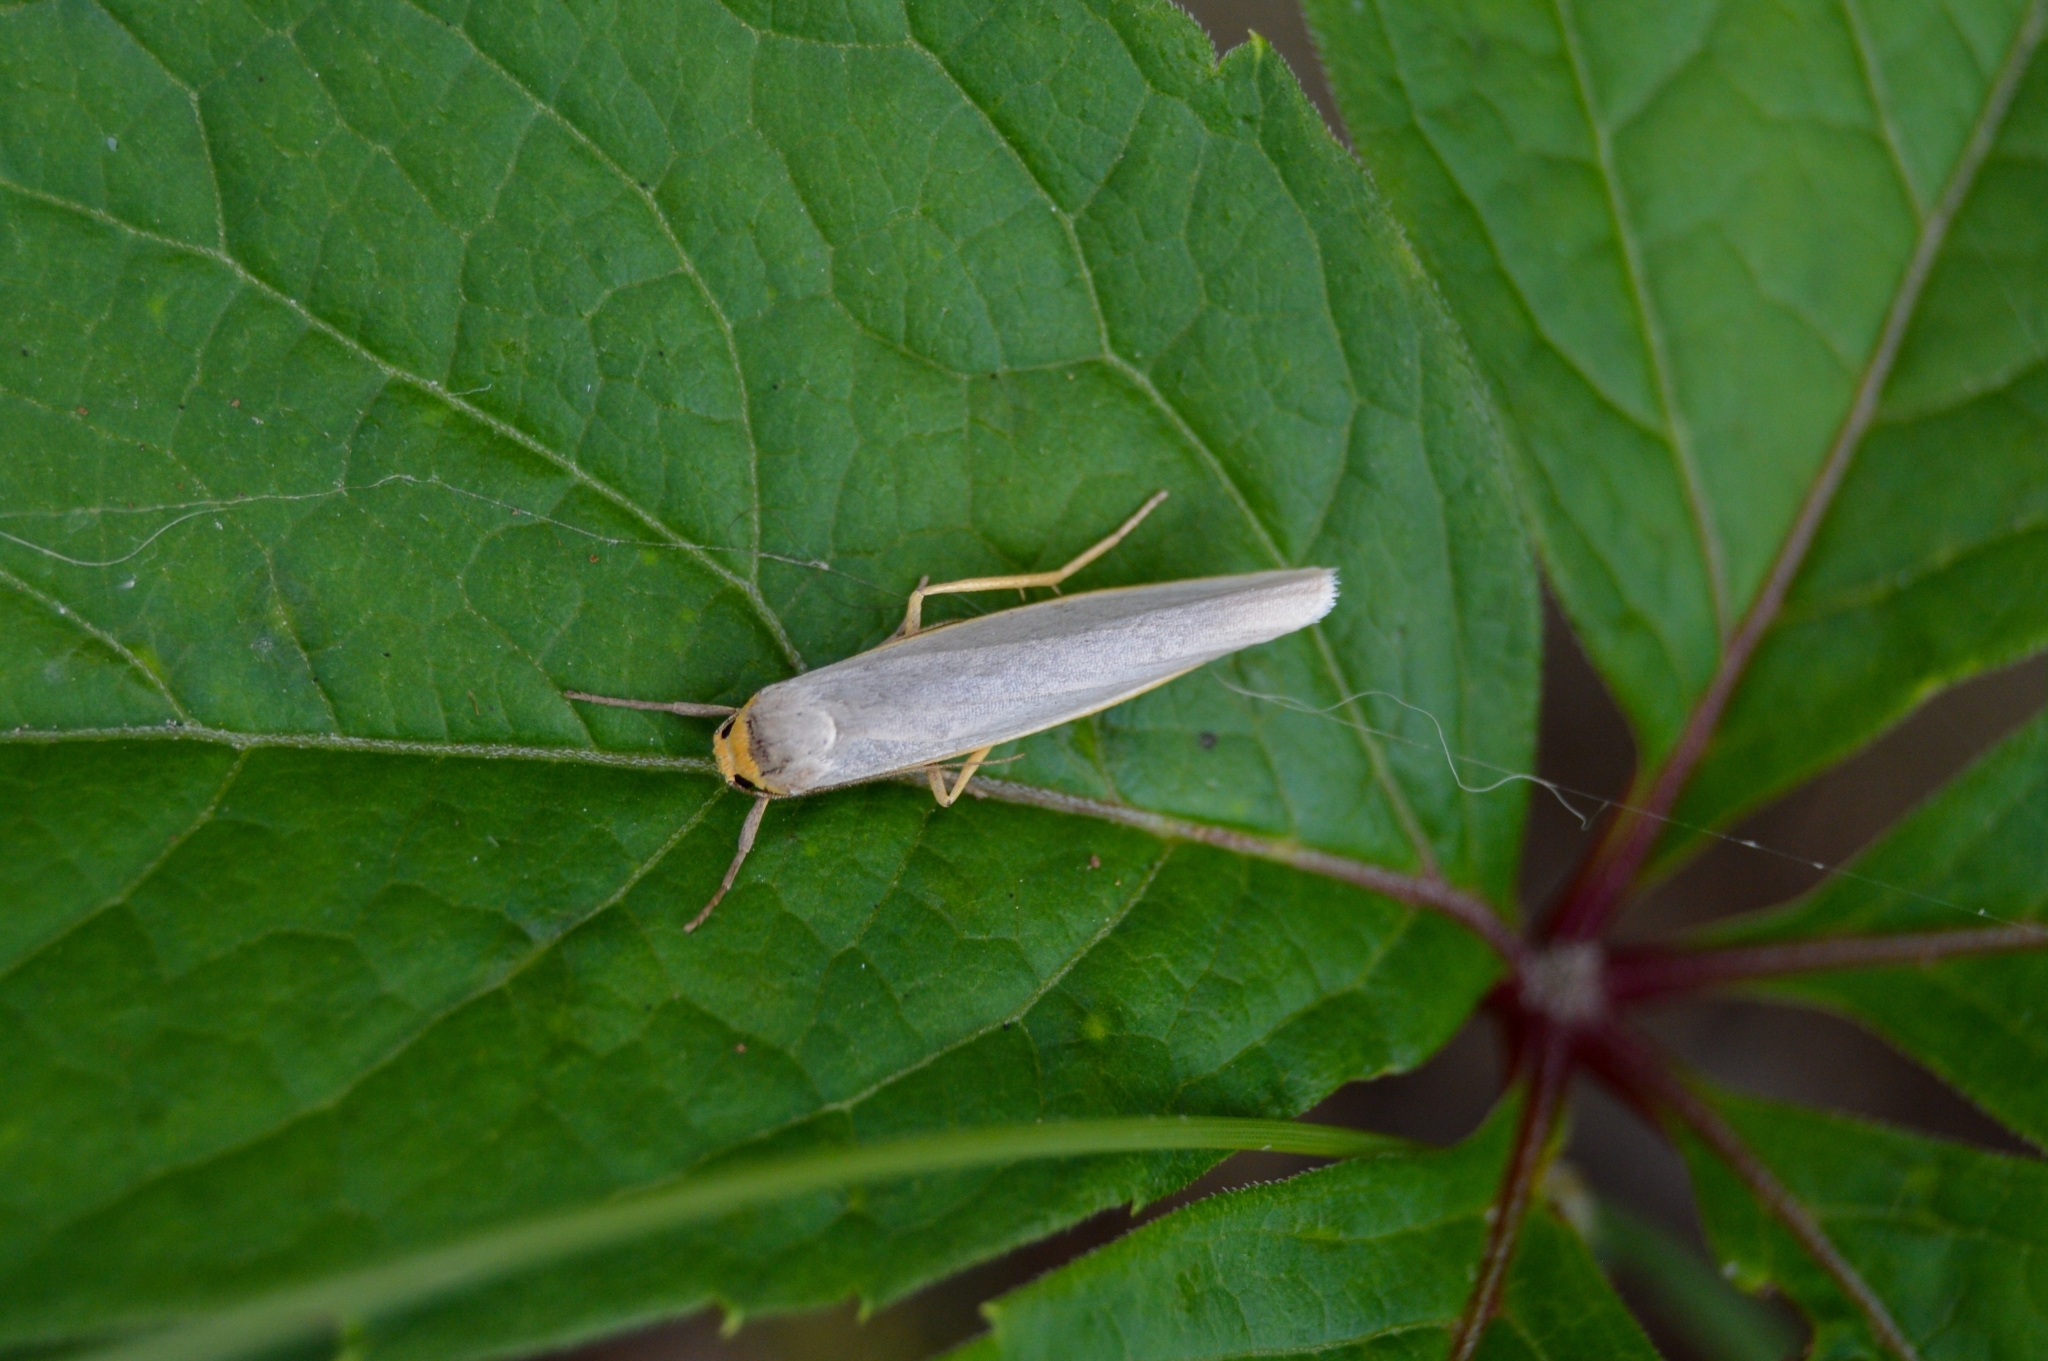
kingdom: Animalia
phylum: Arthropoda
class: Insecta
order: Lepidoptera
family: Erebidae
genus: Eilema
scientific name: Eilema caniola
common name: Hoary footman
